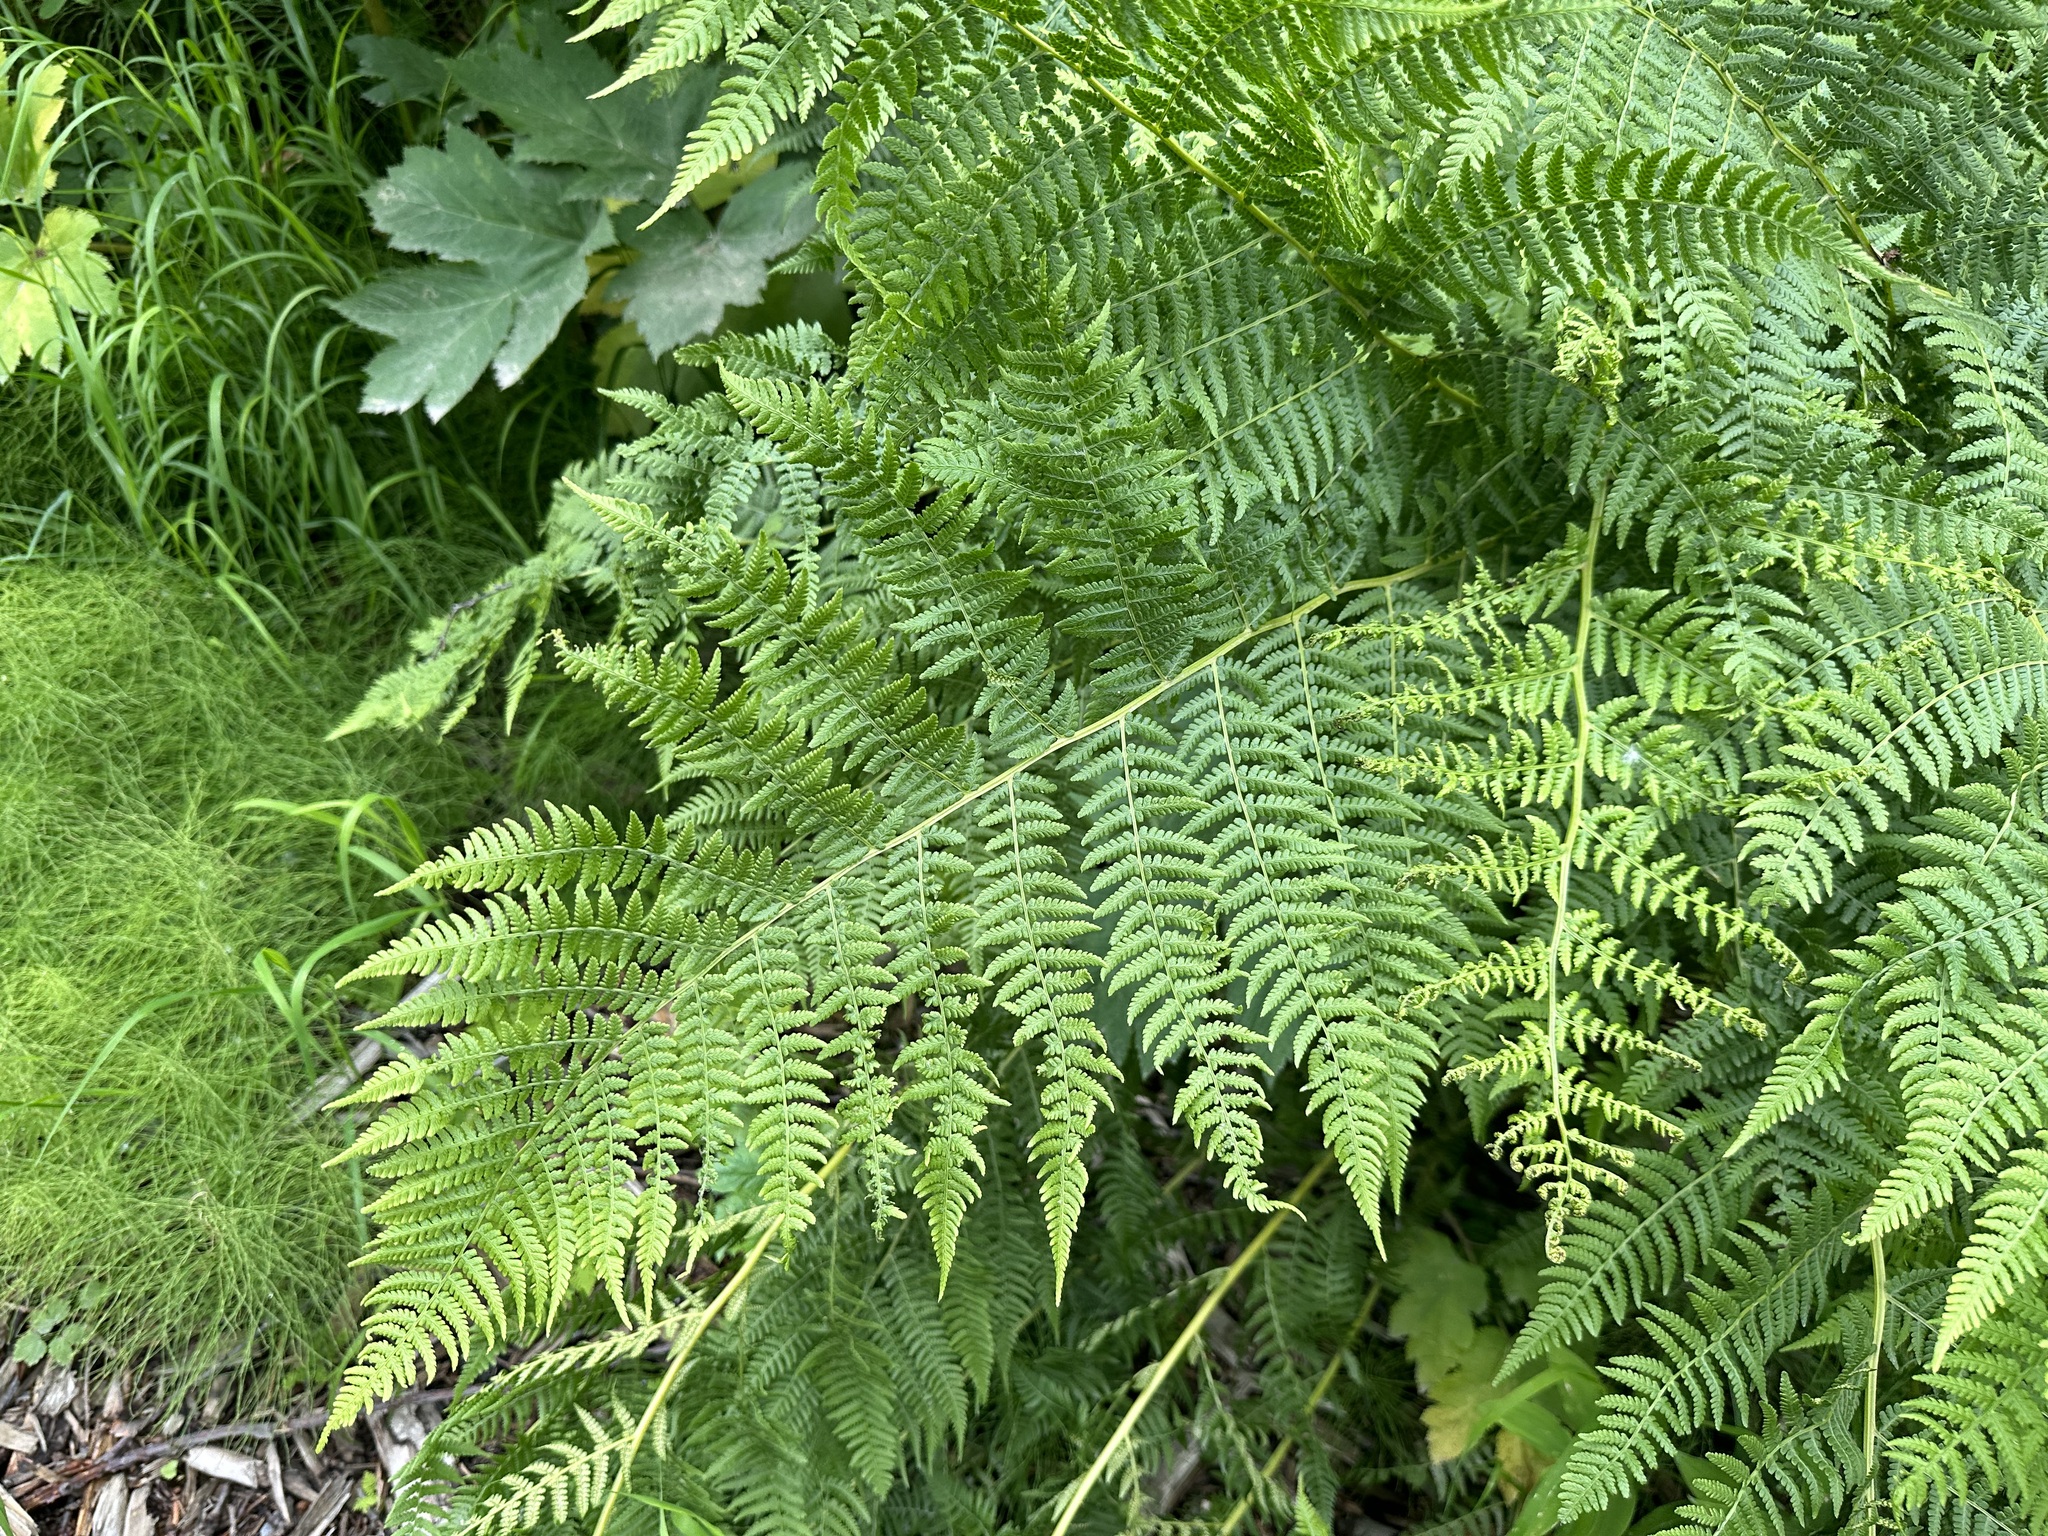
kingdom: Plantae
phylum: Tracheophyta
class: Polypodiopsida
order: Polypodiales
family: Athyriaceae
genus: Athyrium
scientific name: Athyrium filix-femina
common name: Lady fern
